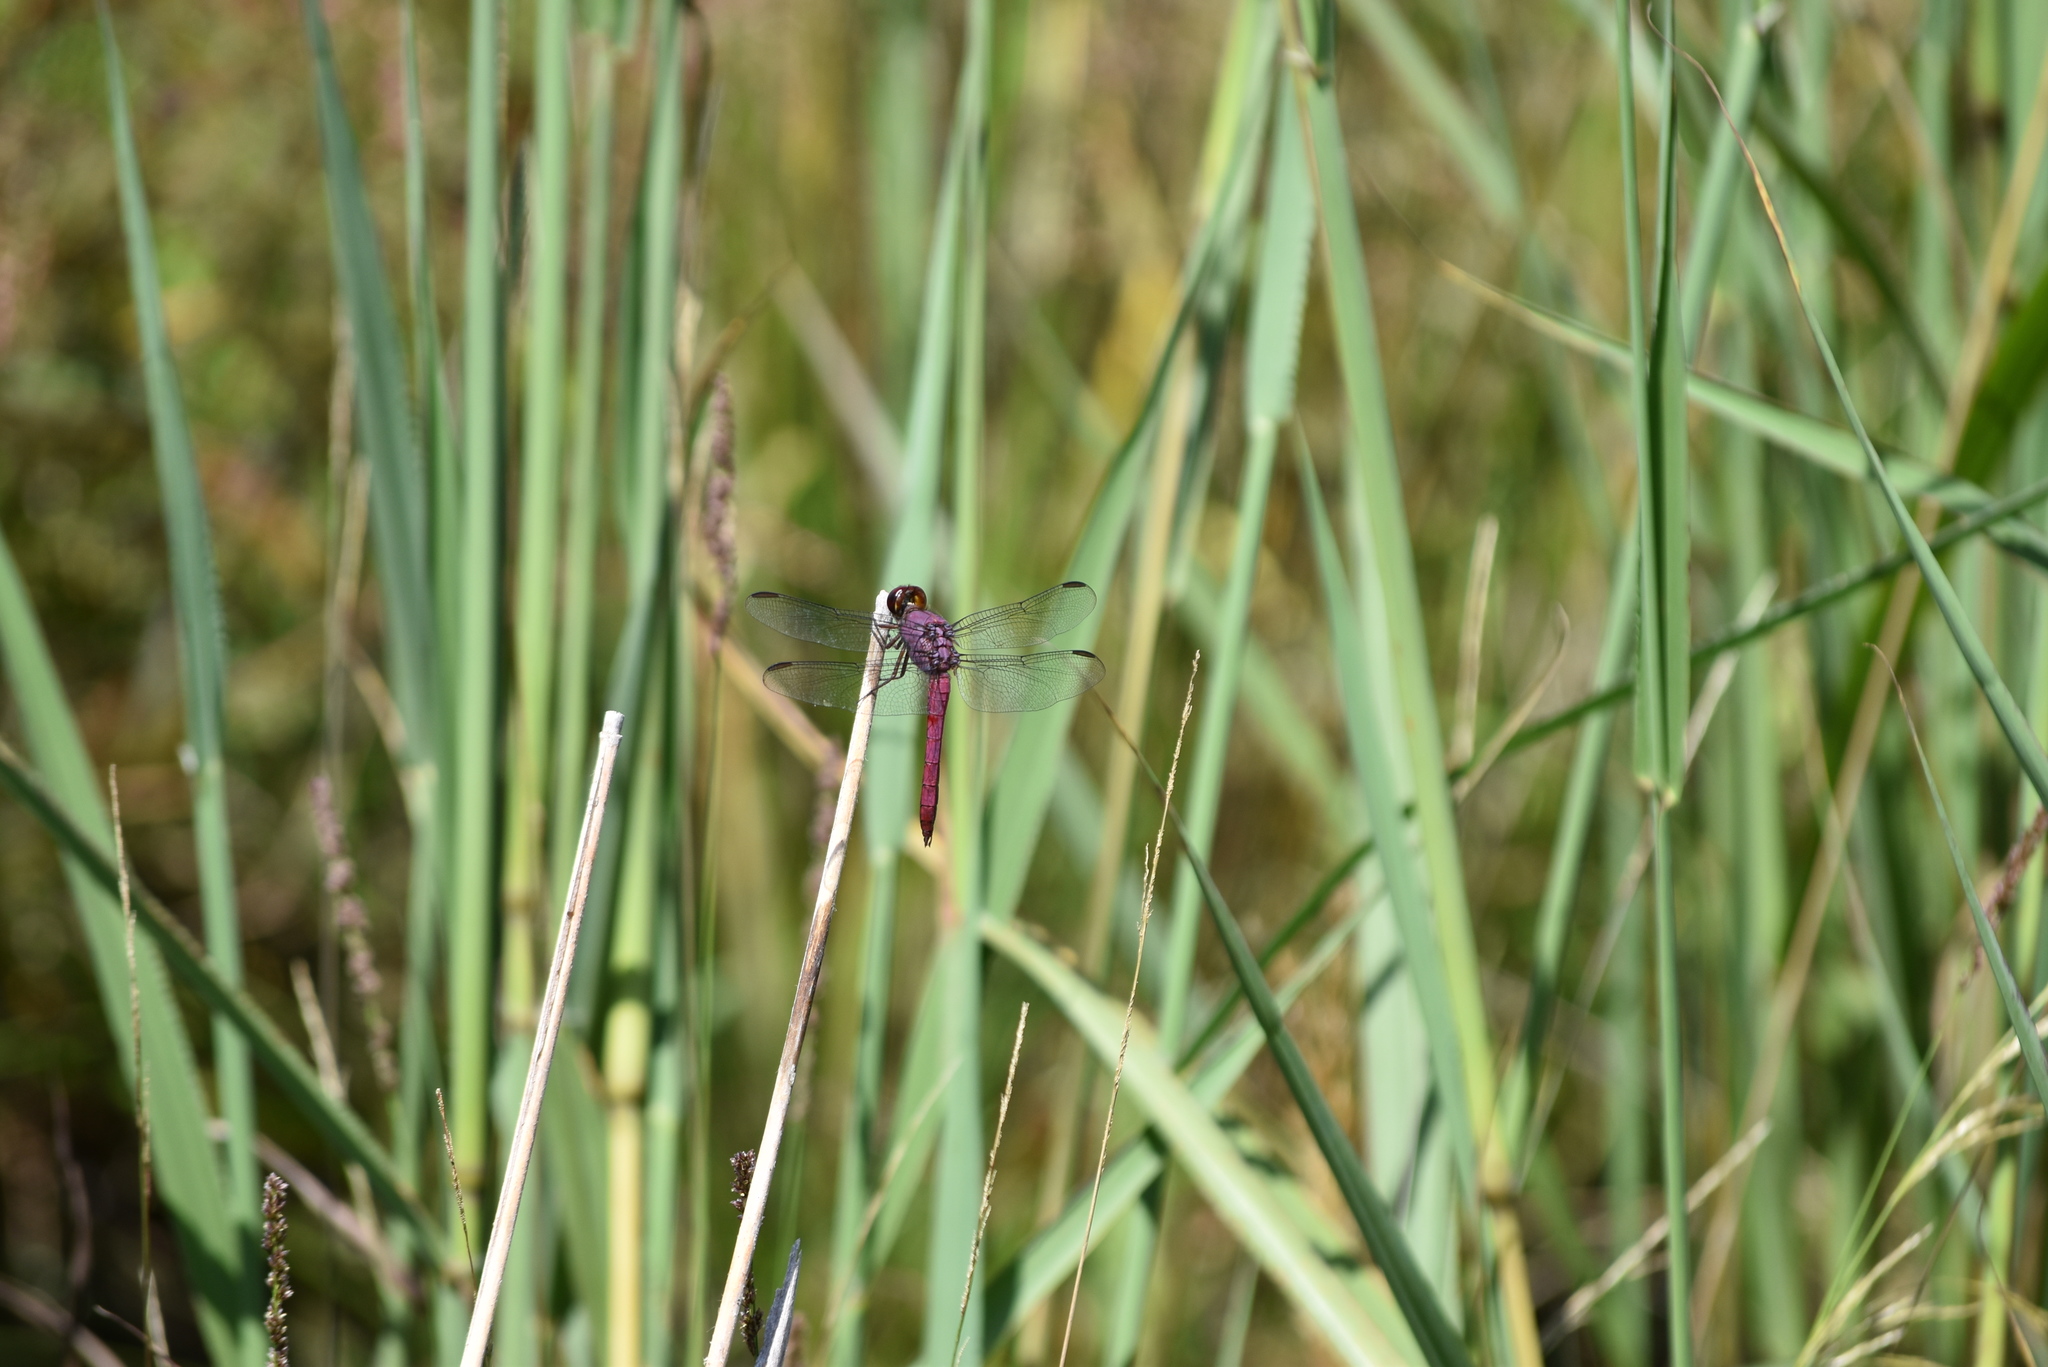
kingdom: Animalia
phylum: Arthropoda
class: Insecta
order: Odonata
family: Libellulidae
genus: Orthemis
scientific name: Orthemis discolor
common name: Carmine skimmer
